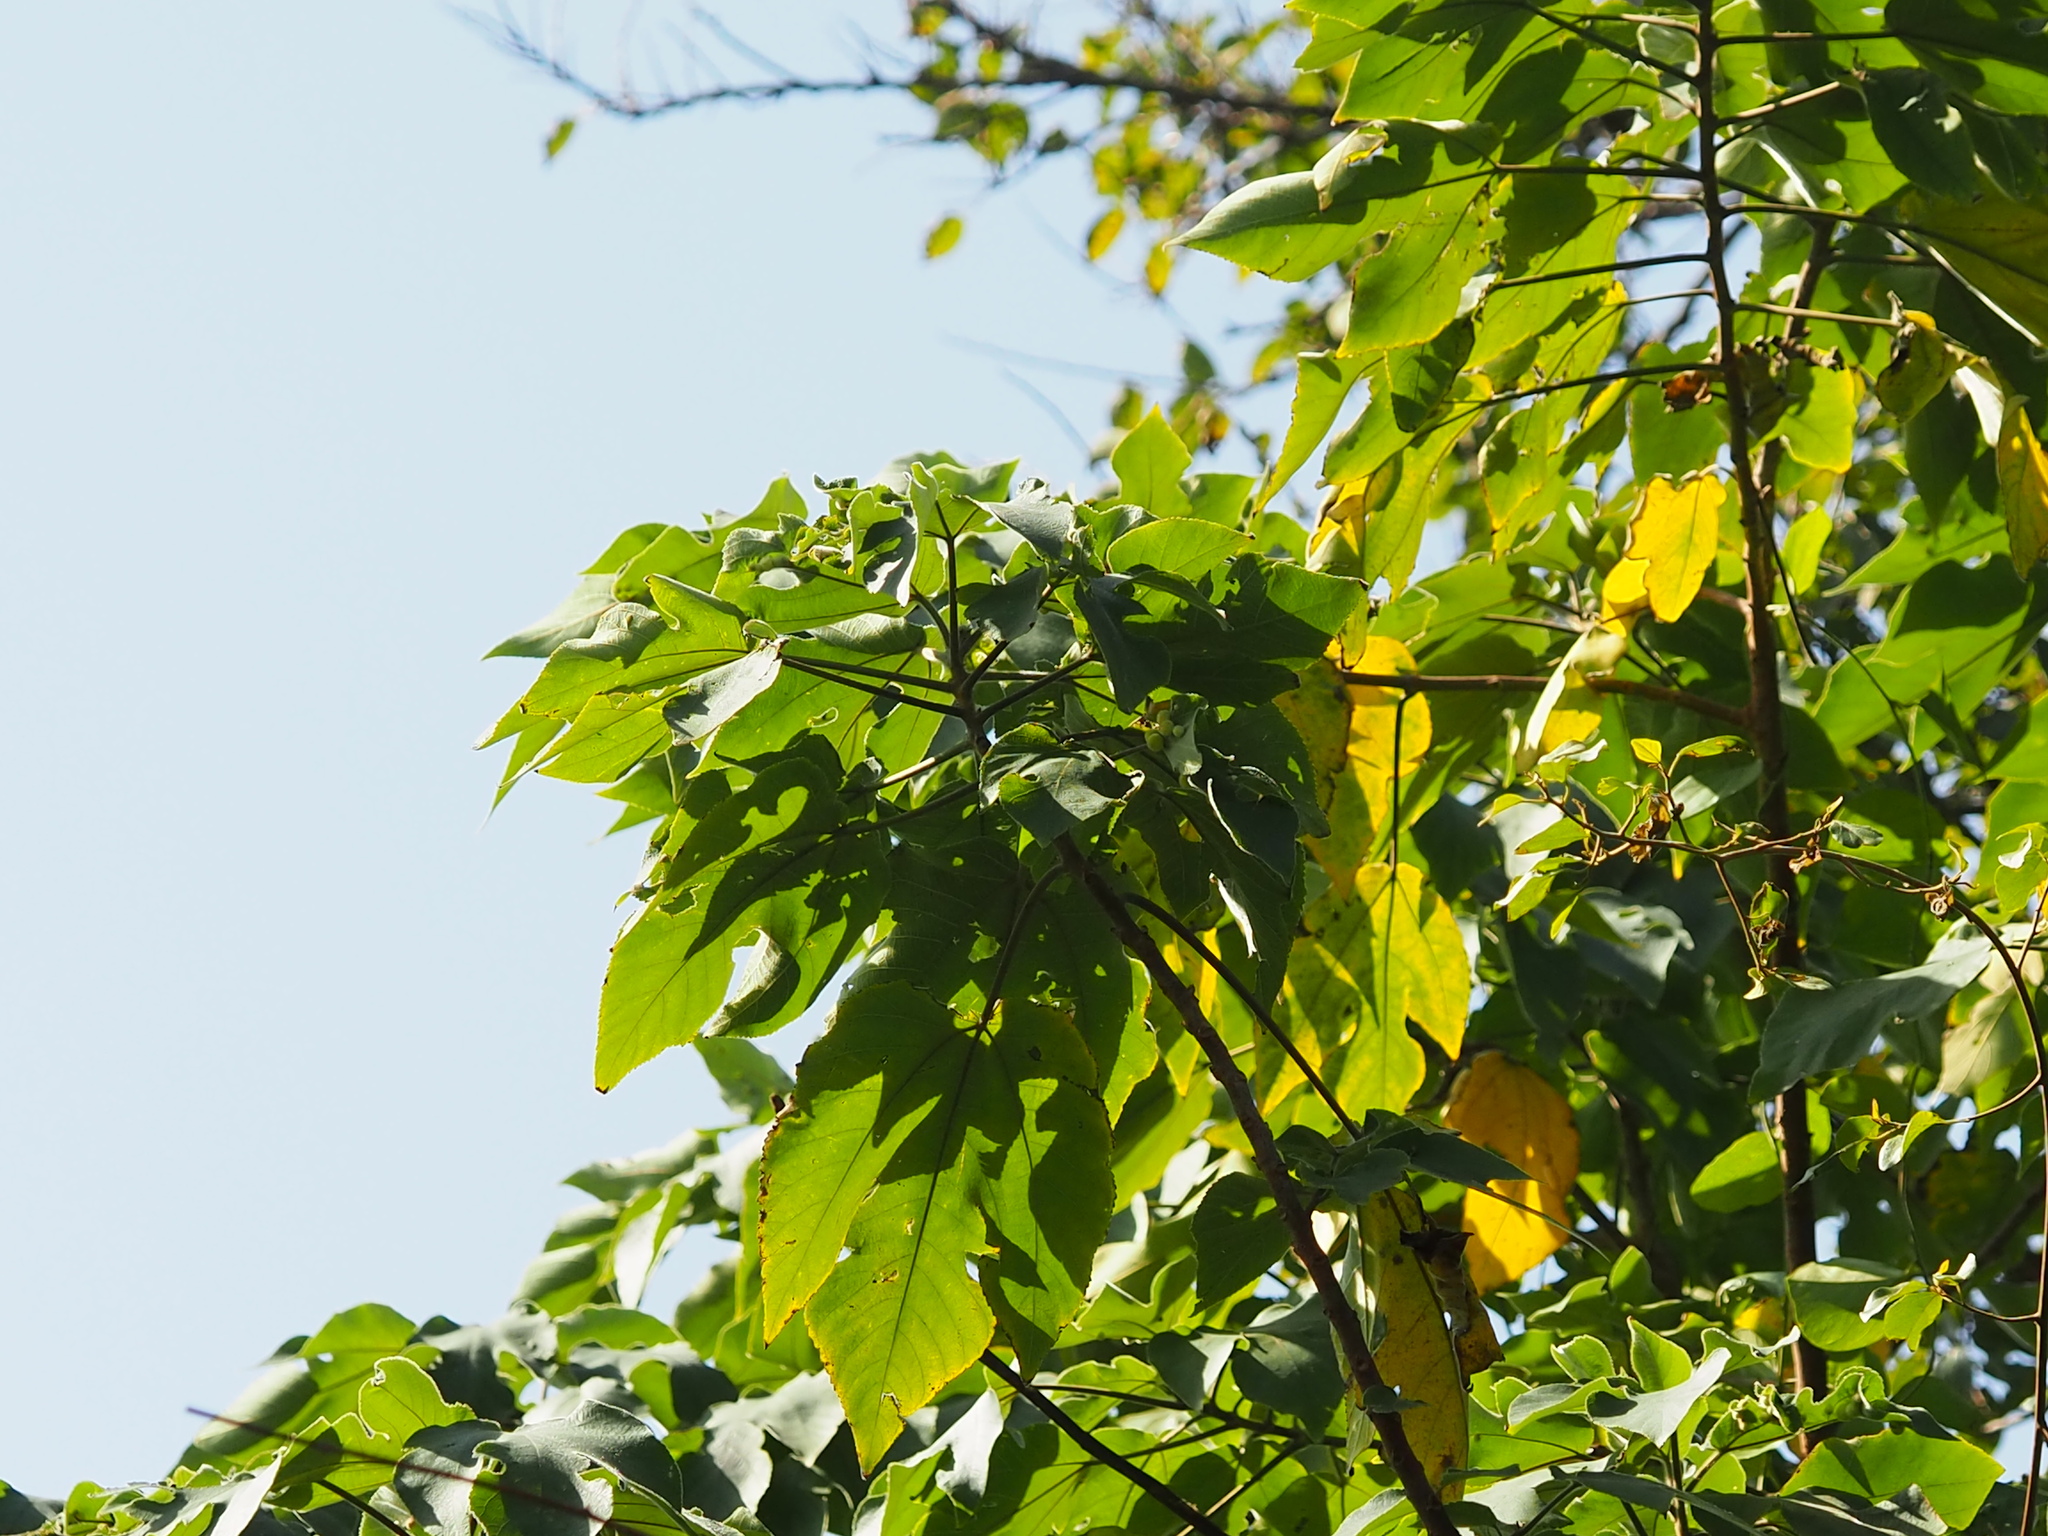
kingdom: Plantae
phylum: Tracheophyta
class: Magnoliopsida
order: Rosales
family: Moraceae
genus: Broussonetia
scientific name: Broussonetia papyrifera
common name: Paper mulberry
